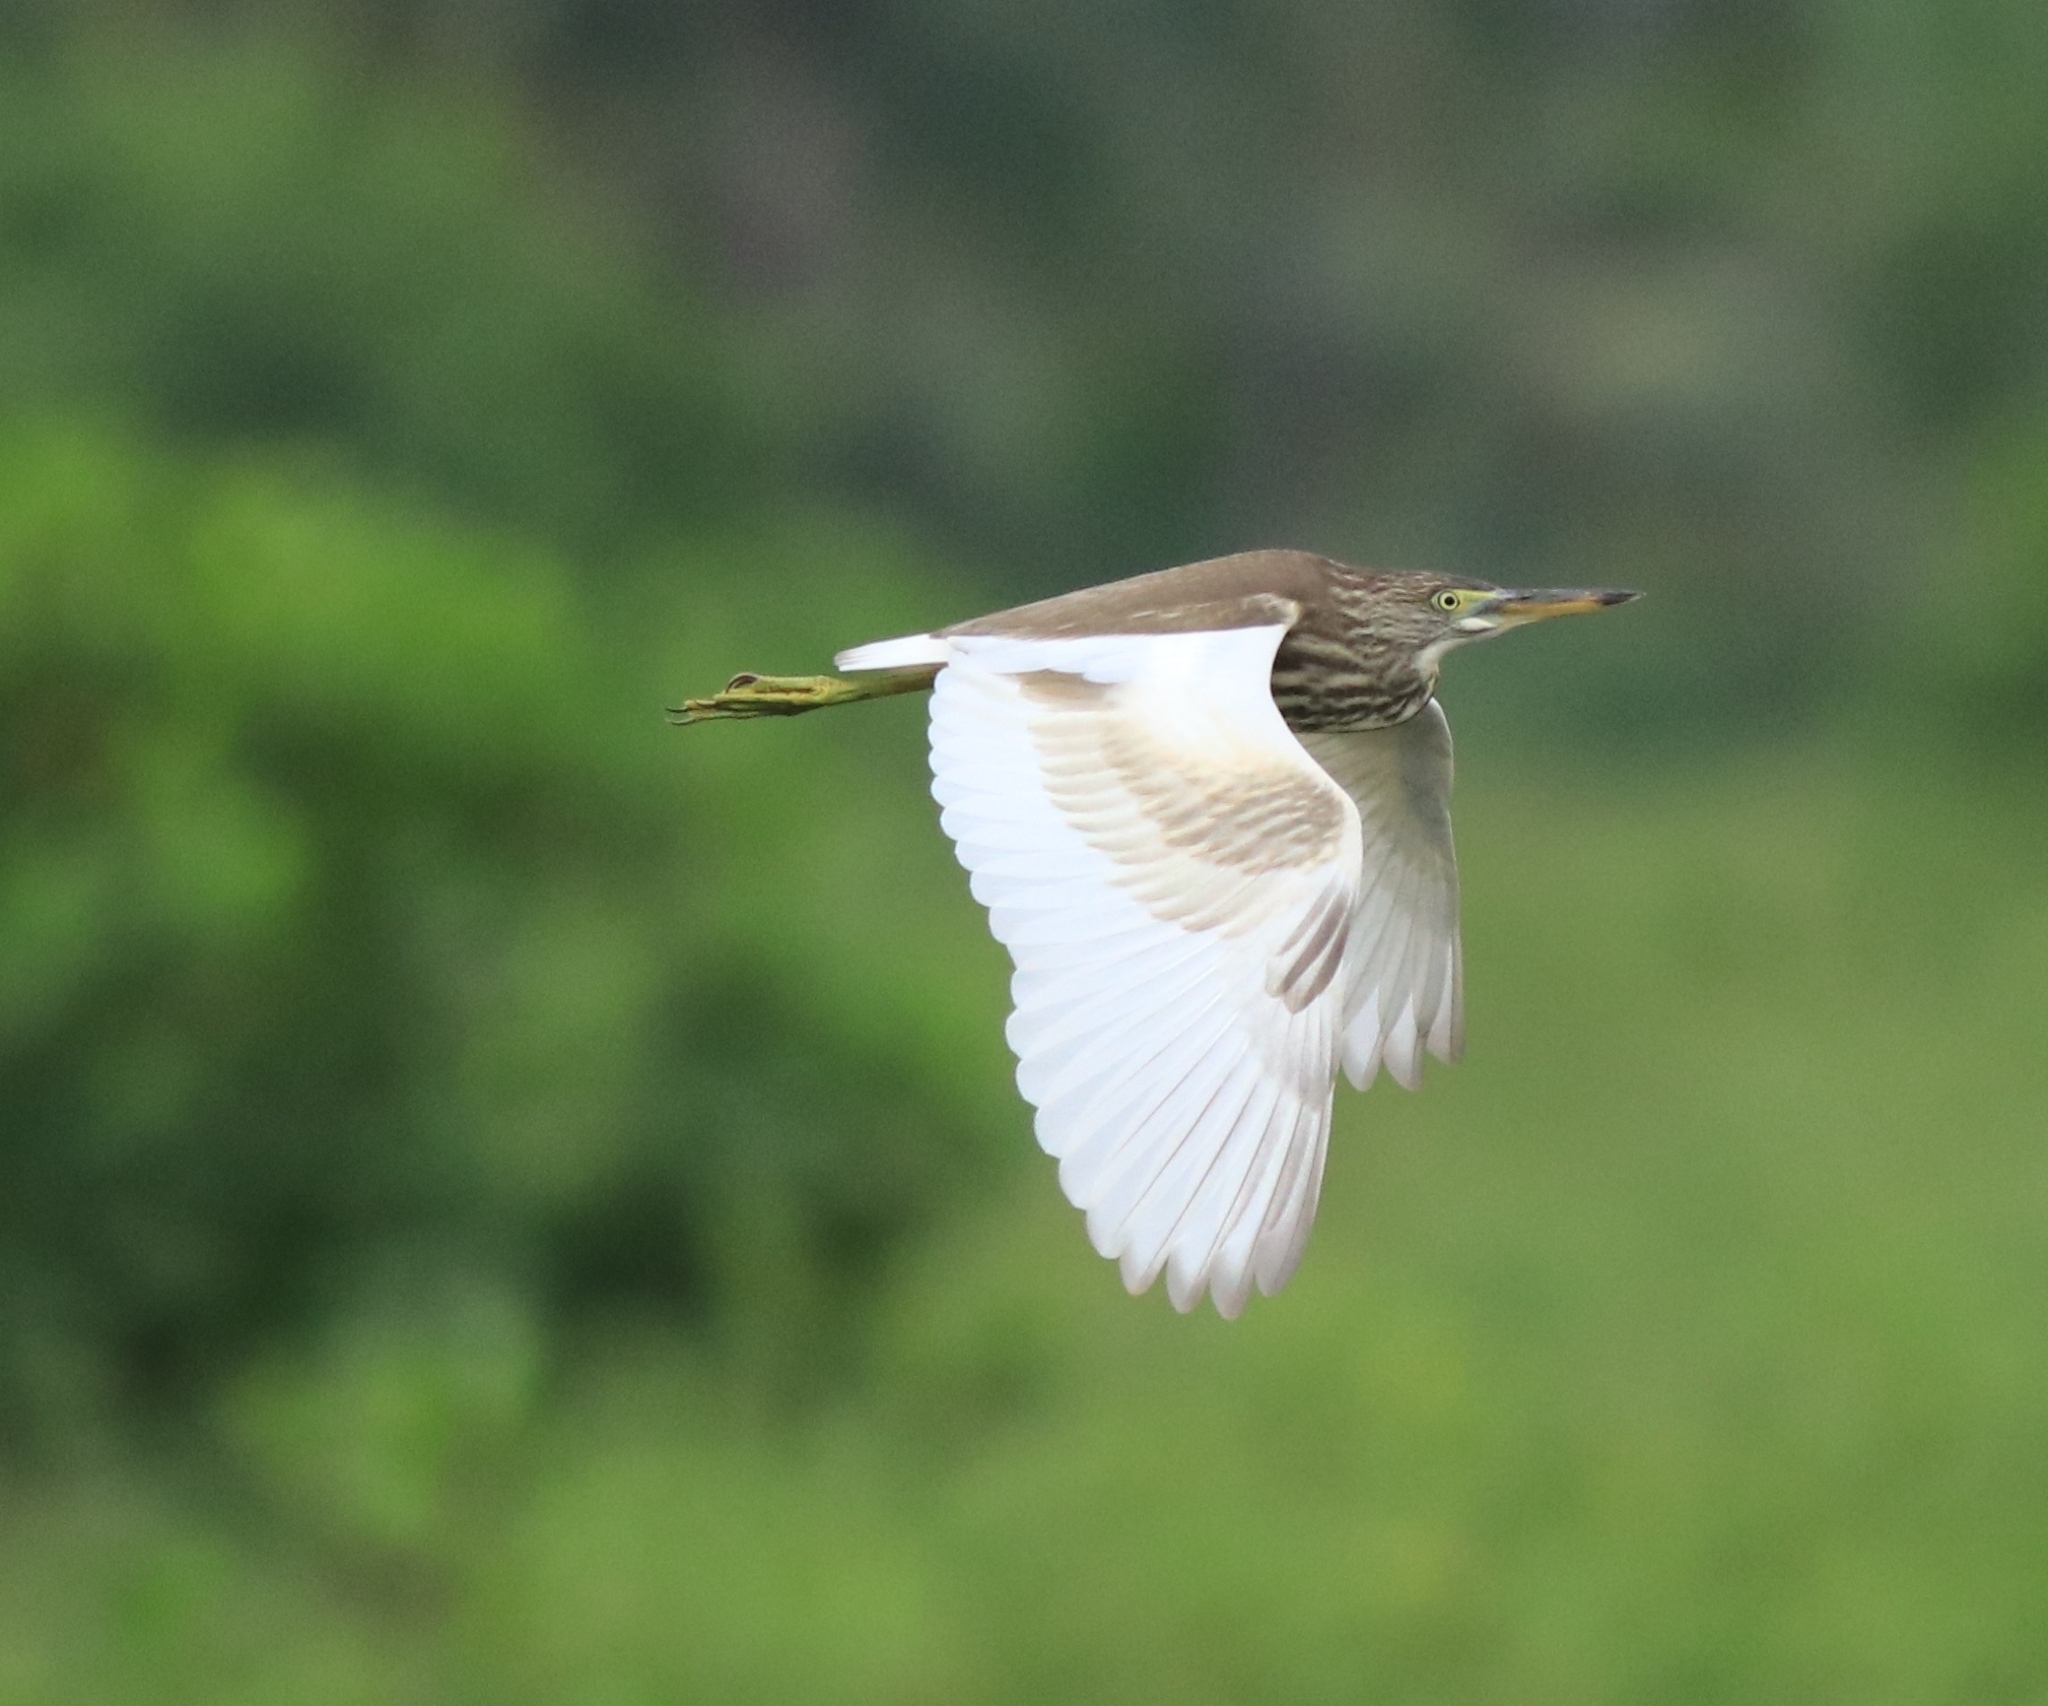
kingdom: Animalia
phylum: Chordata
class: Aves
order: Pelecaniformes
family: Ardeidae
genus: Ardeola
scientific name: Ardeola grayii
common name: Indian pond heron
